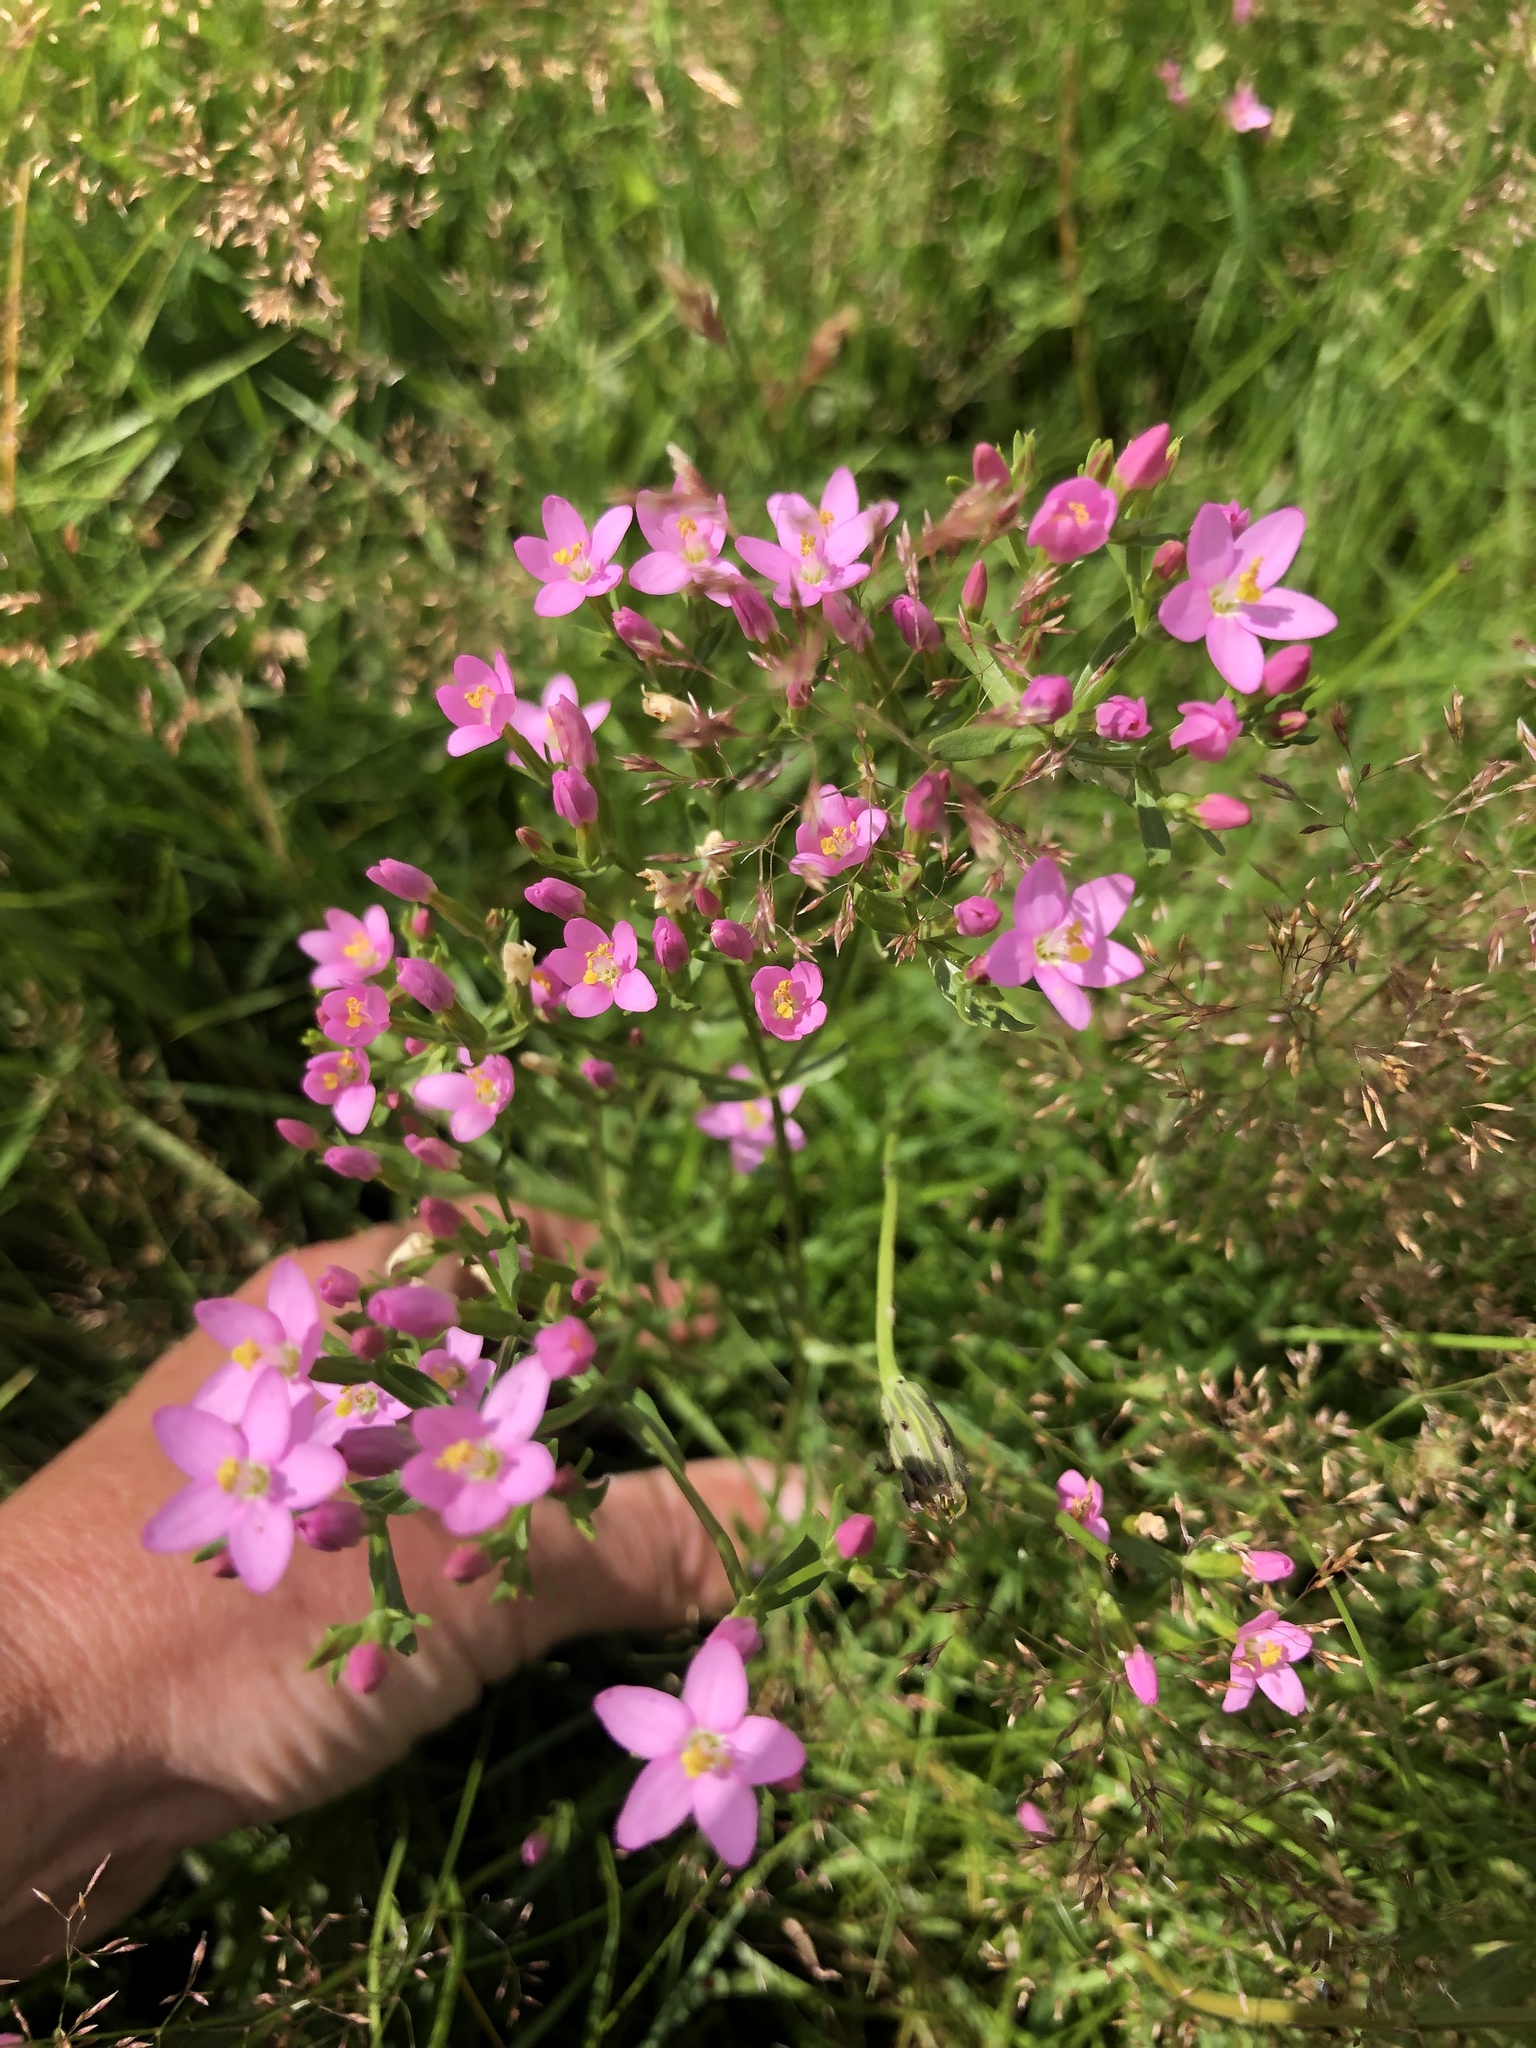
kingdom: Plantae
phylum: Tracheophyta
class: Magnoliopsida
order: Gentianales
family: Gentianaceae
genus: Centaurium
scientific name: Centaurium erythraea
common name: Common centaury
